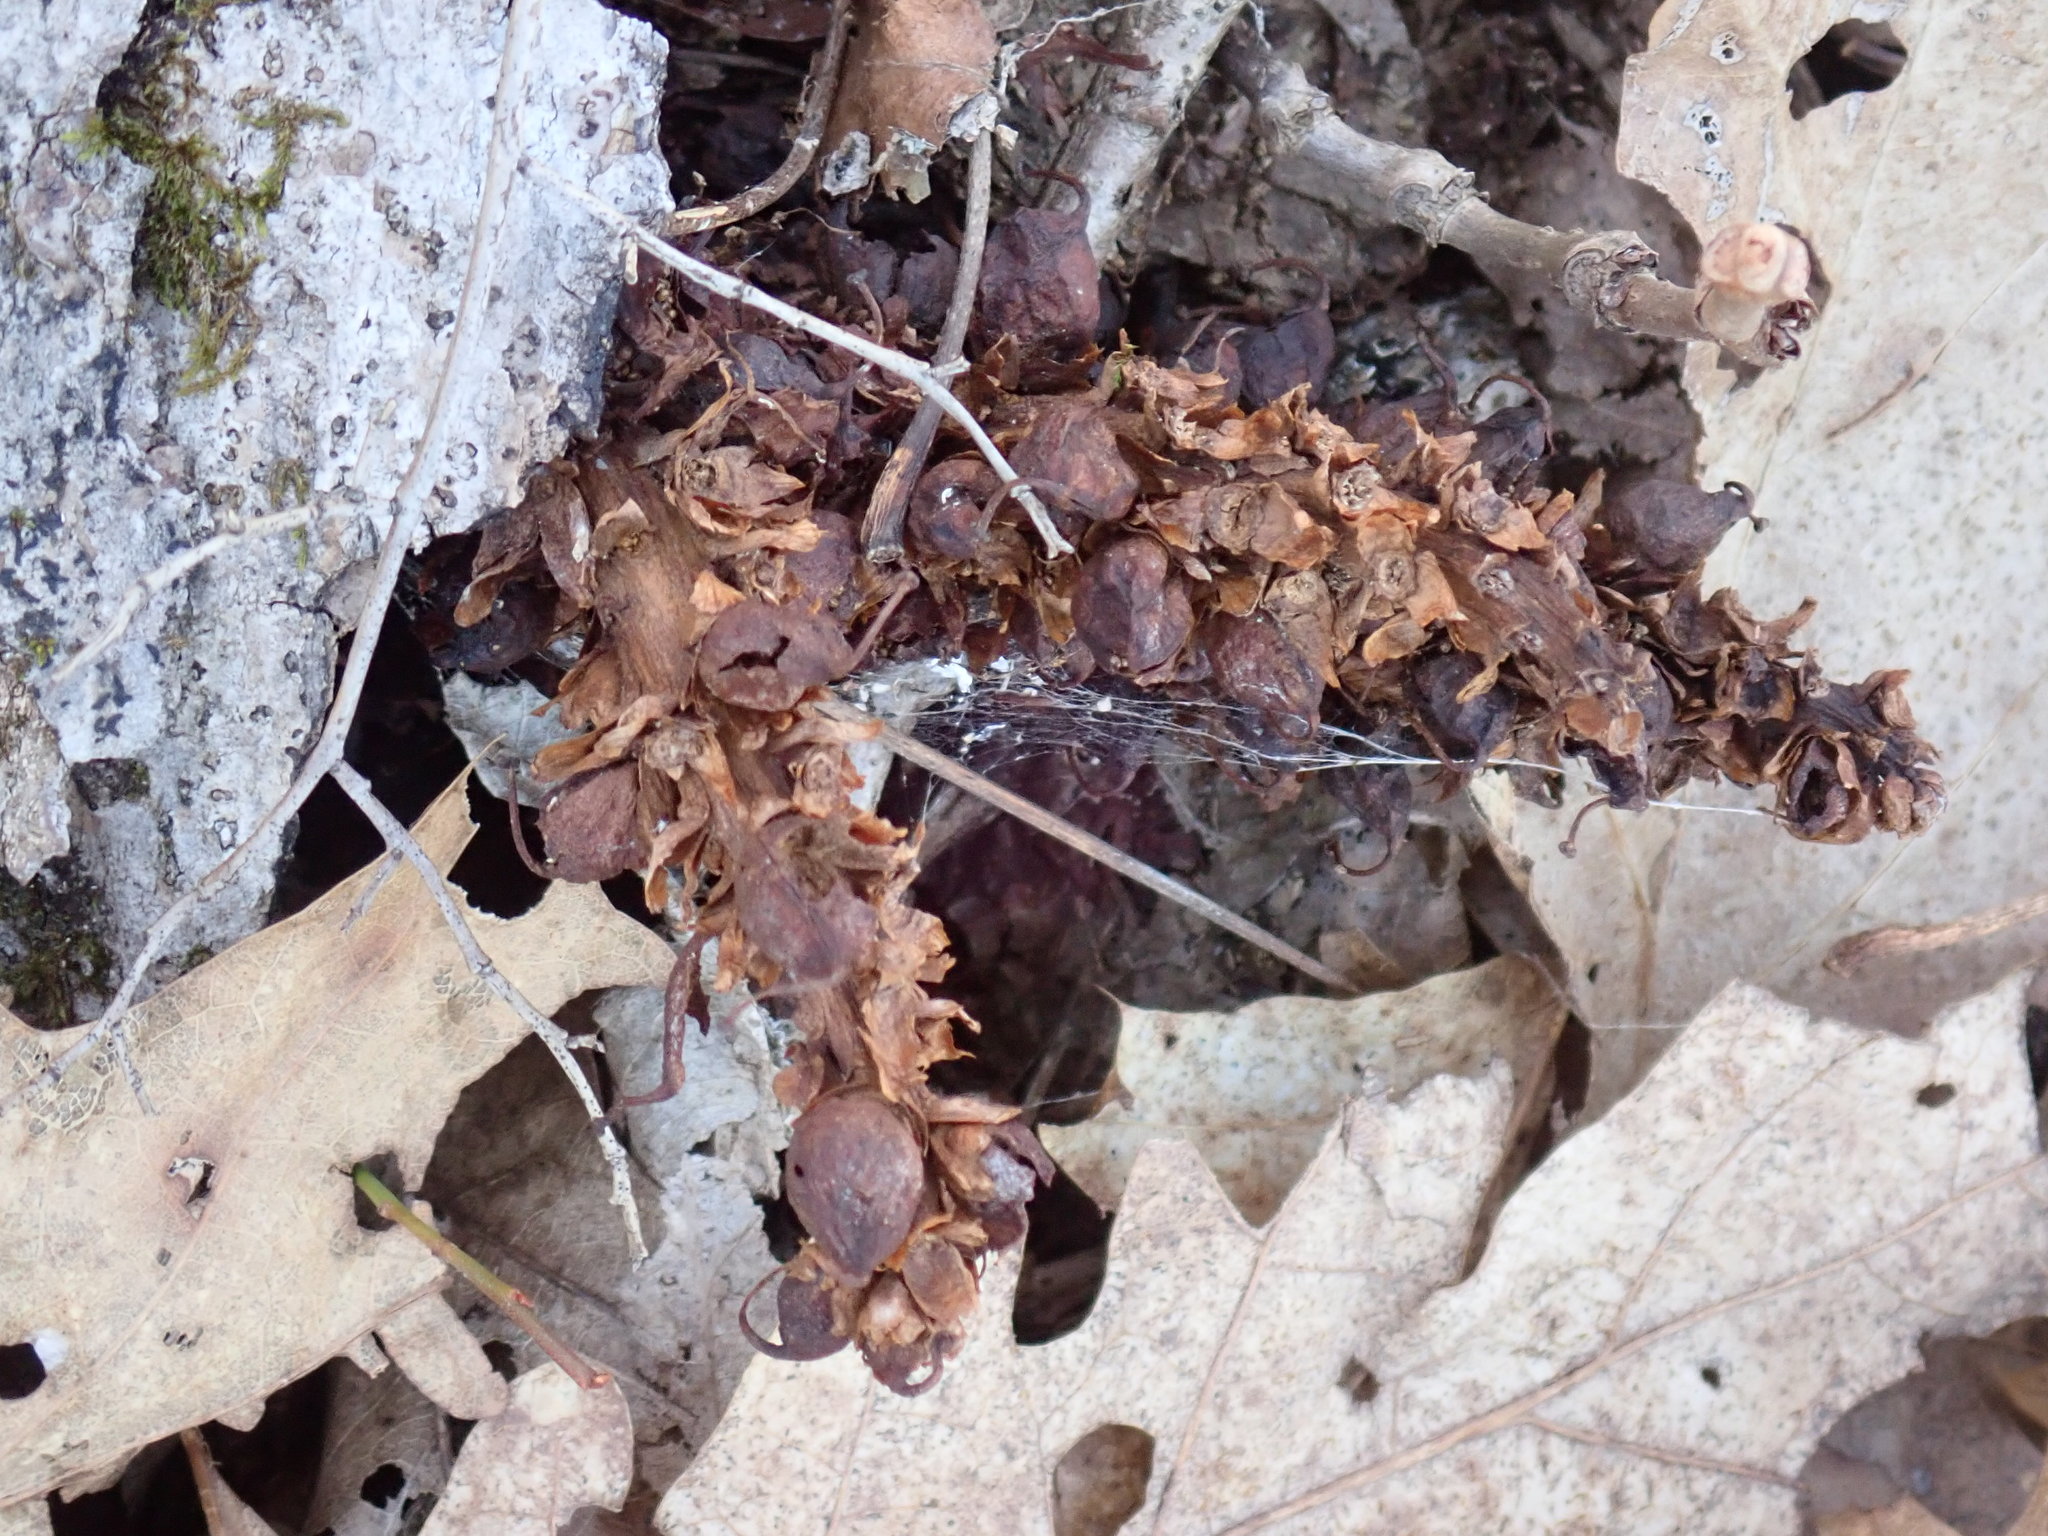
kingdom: Plantae
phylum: Tracheophyta
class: Magnoliopsida
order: Lamiales
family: Orobanchaceae
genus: Conopholis
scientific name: Conopholis americana
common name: American cancer-root
